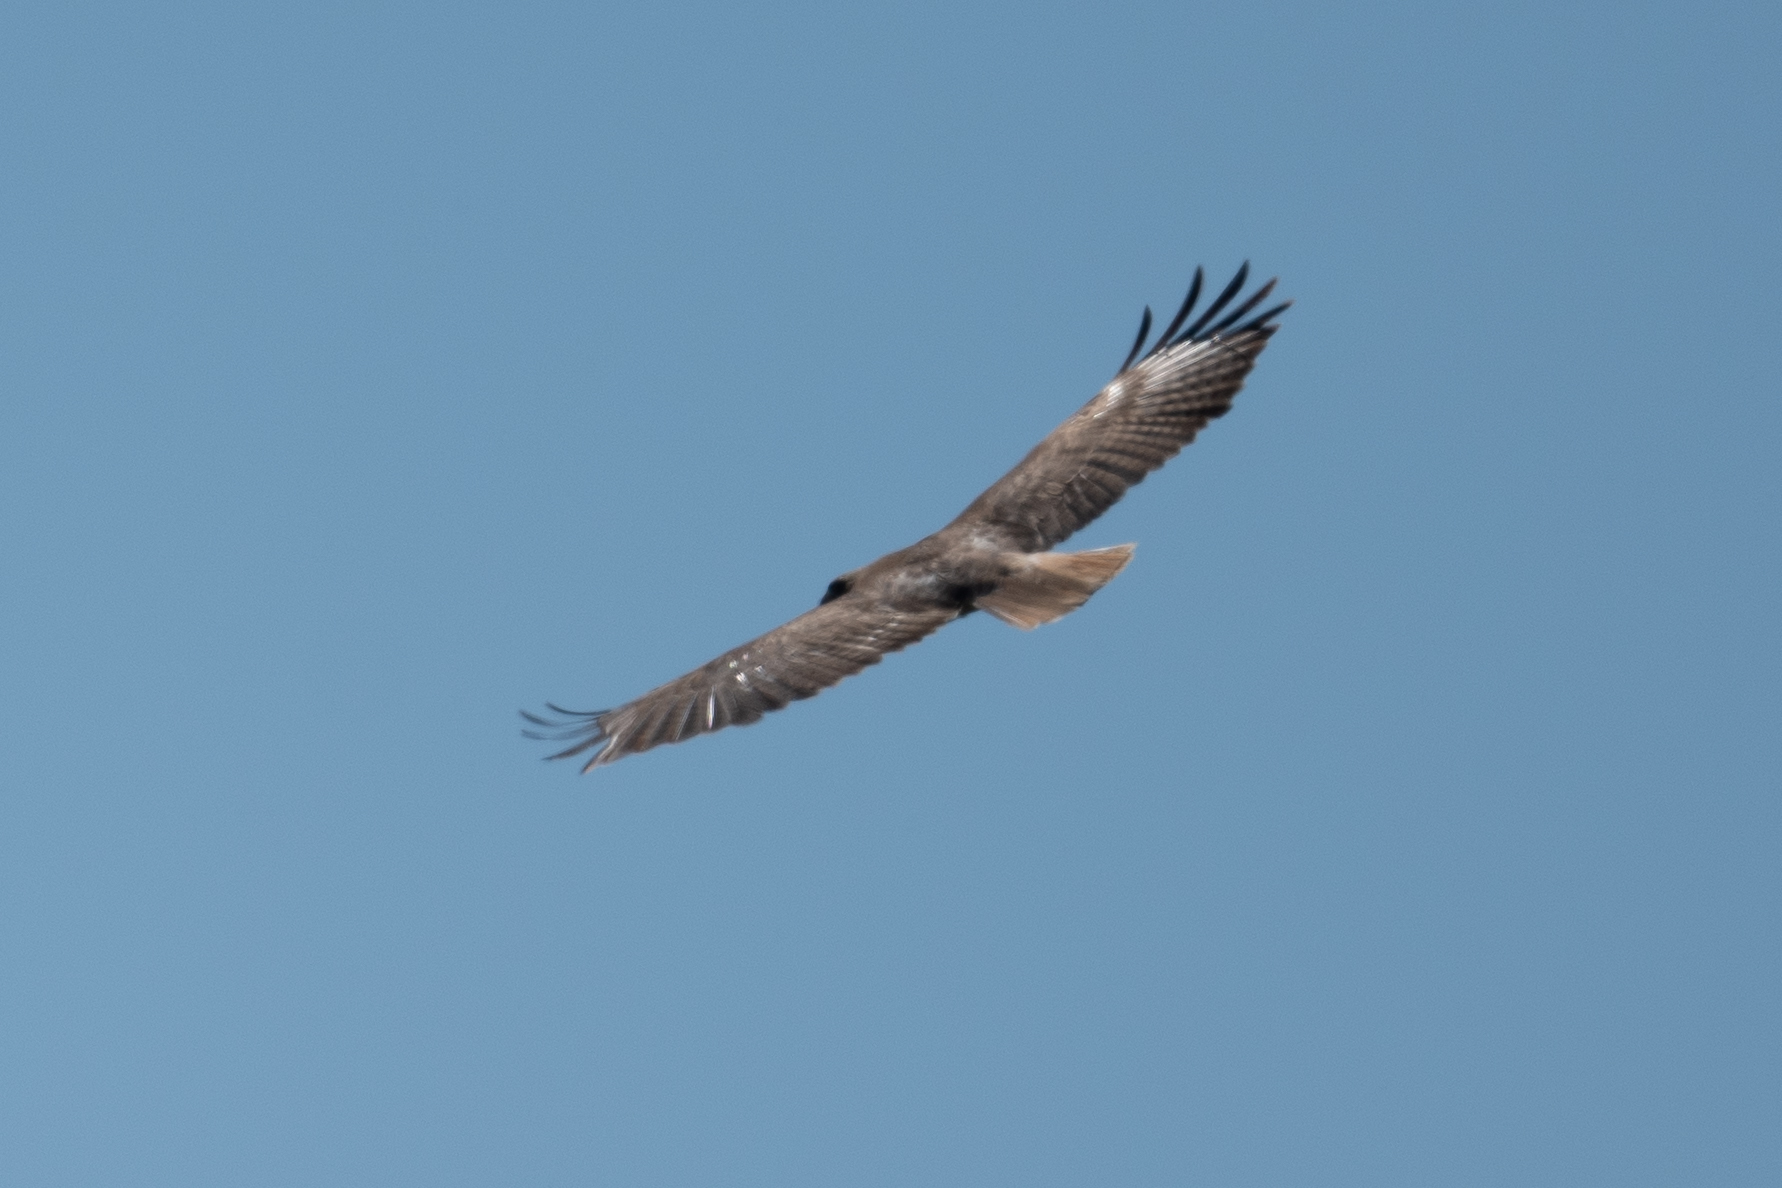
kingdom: Animalia
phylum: Chordata
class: Aves
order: Accipitriformes
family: Accipitridae
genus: Buteo
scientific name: Buteo jamaicensis
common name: Red-tailed hawk
